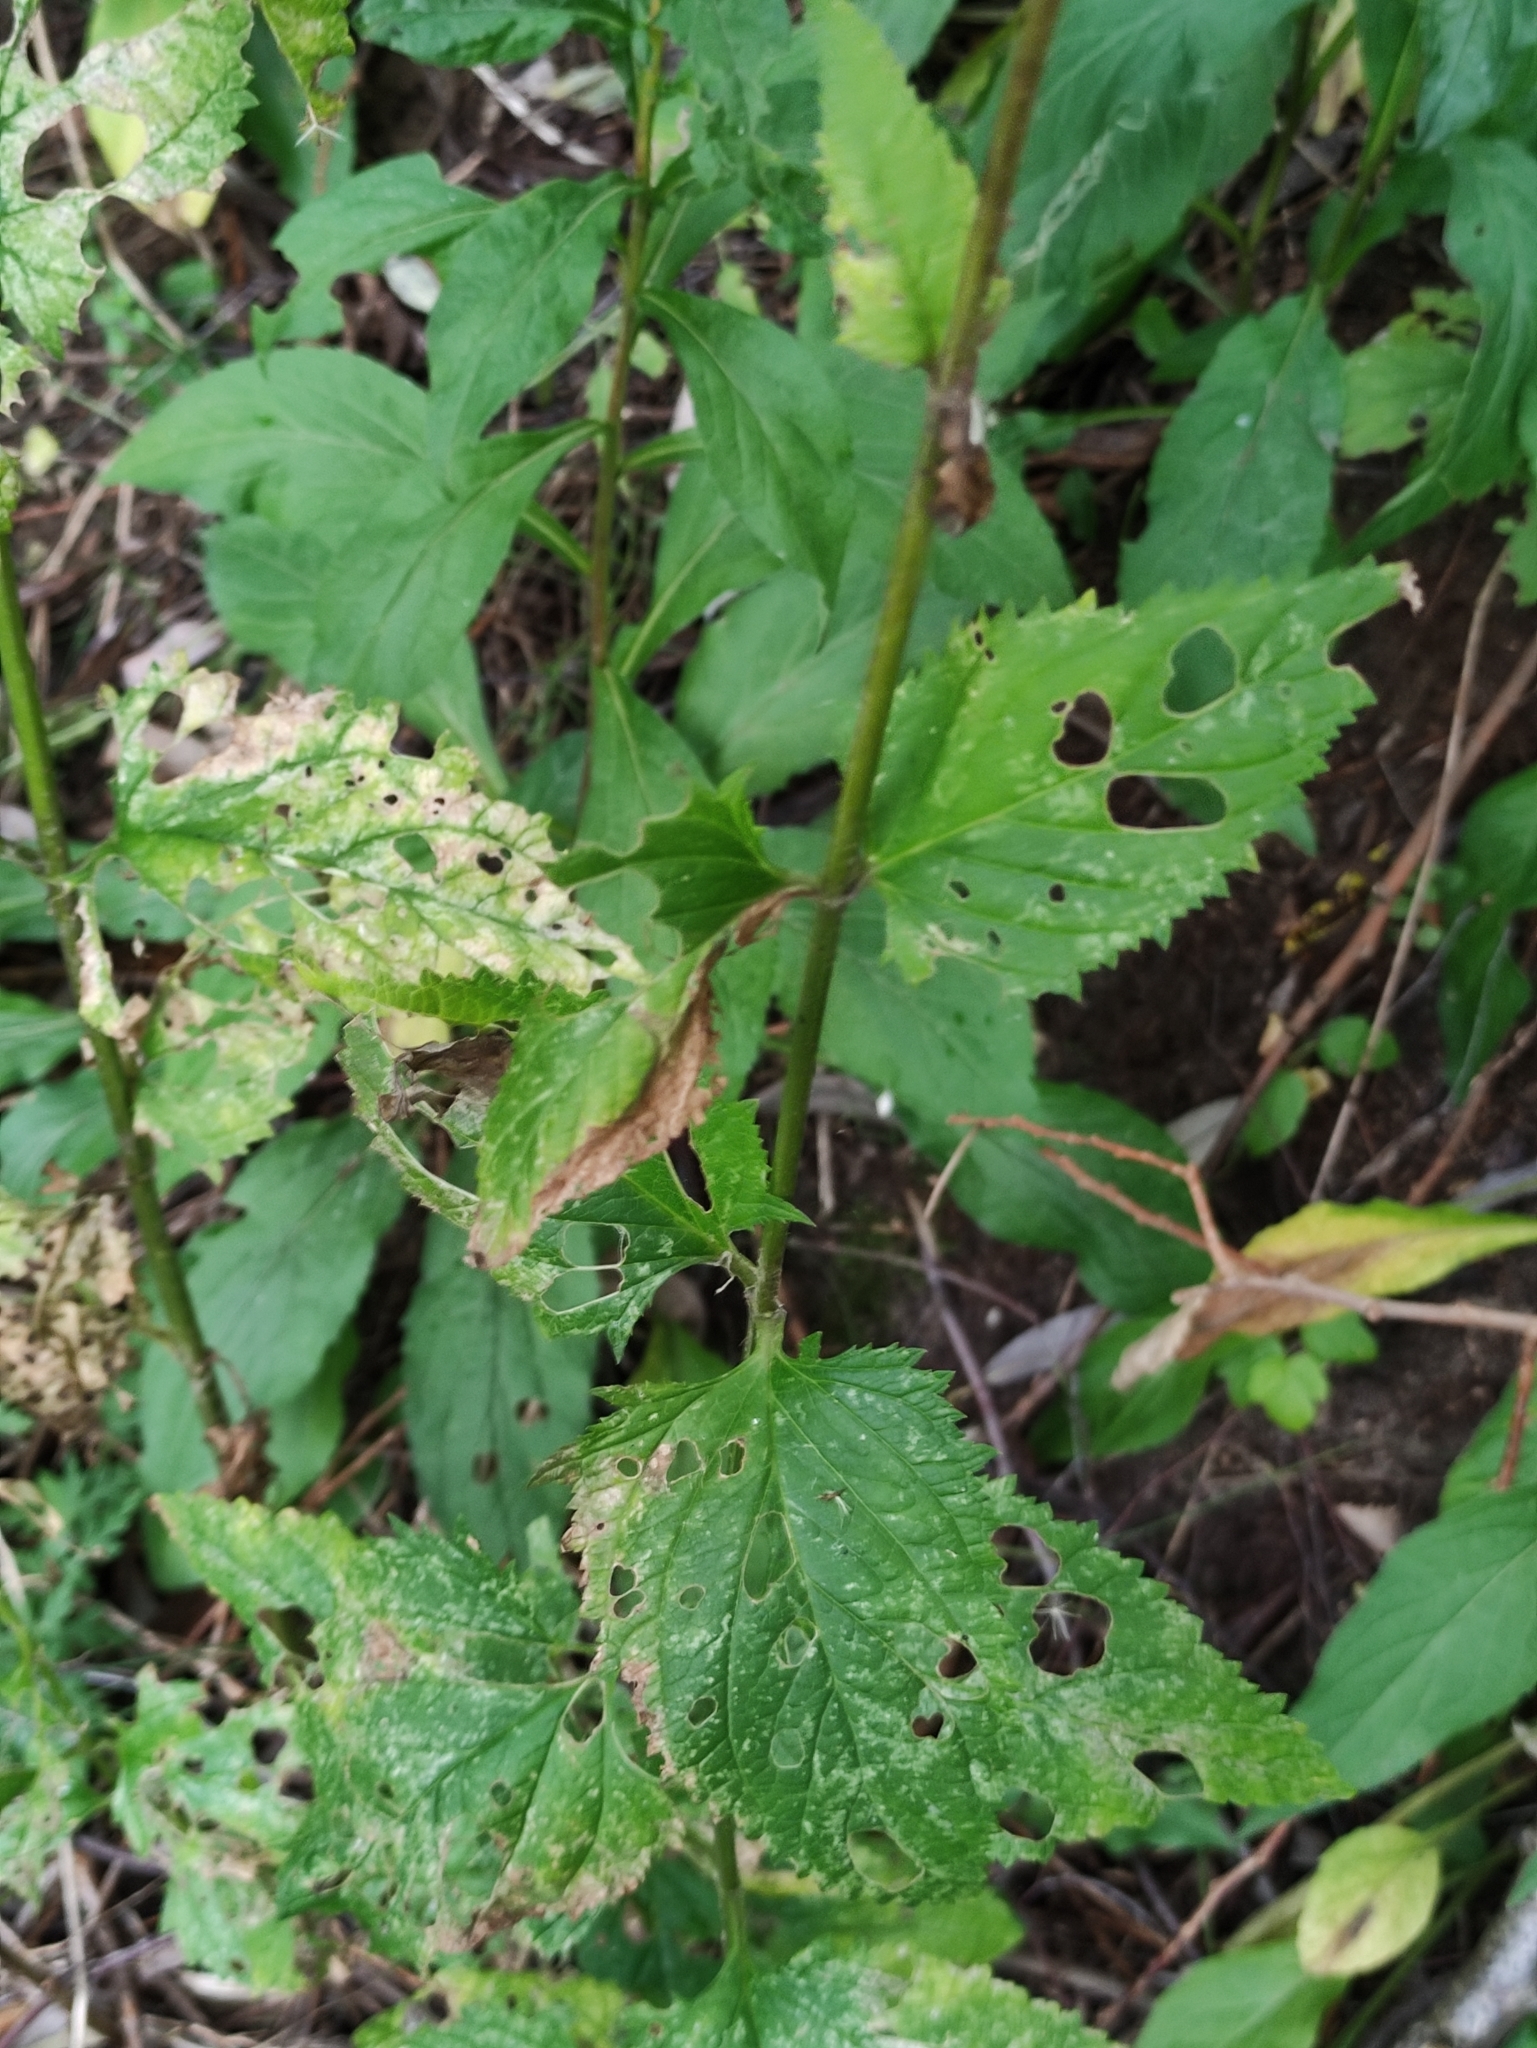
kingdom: Plantae
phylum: Tracheophyta
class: Magnoliopsida
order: Lamiales
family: Scrophulariaceae
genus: Scrophularia
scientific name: Scrophularia nodosa
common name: Common figwort
